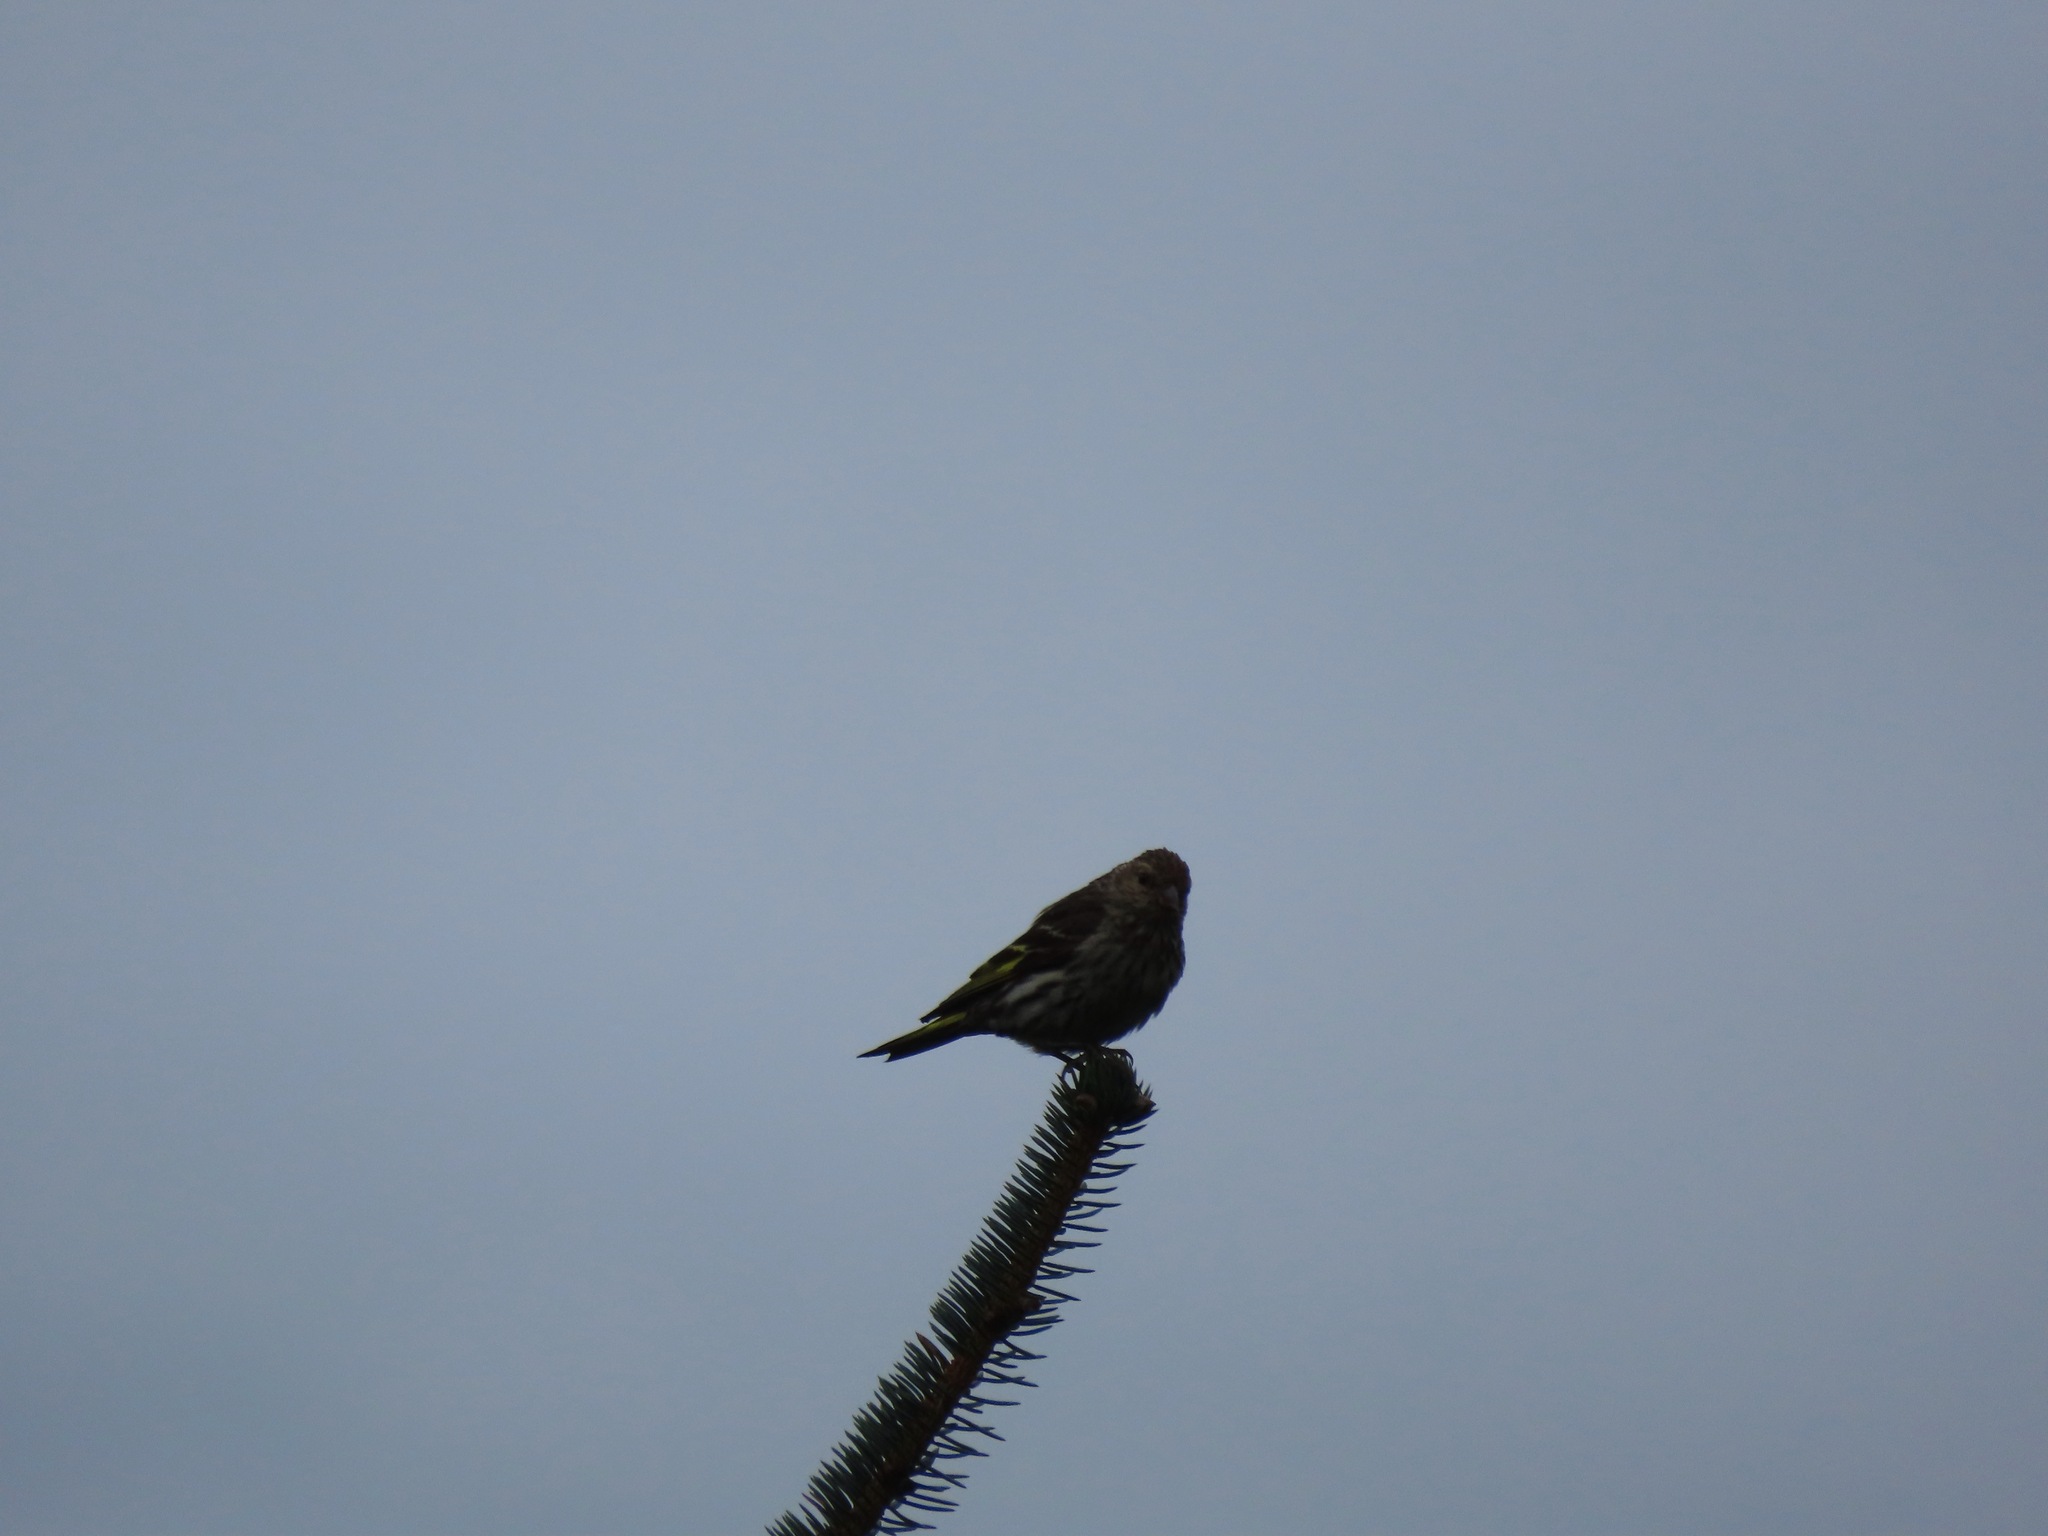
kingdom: Animalia
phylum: Chordata
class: Aves
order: Passeriformes
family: Fringillidae
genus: Spinus
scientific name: Spinus pinus
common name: Pine siskin
